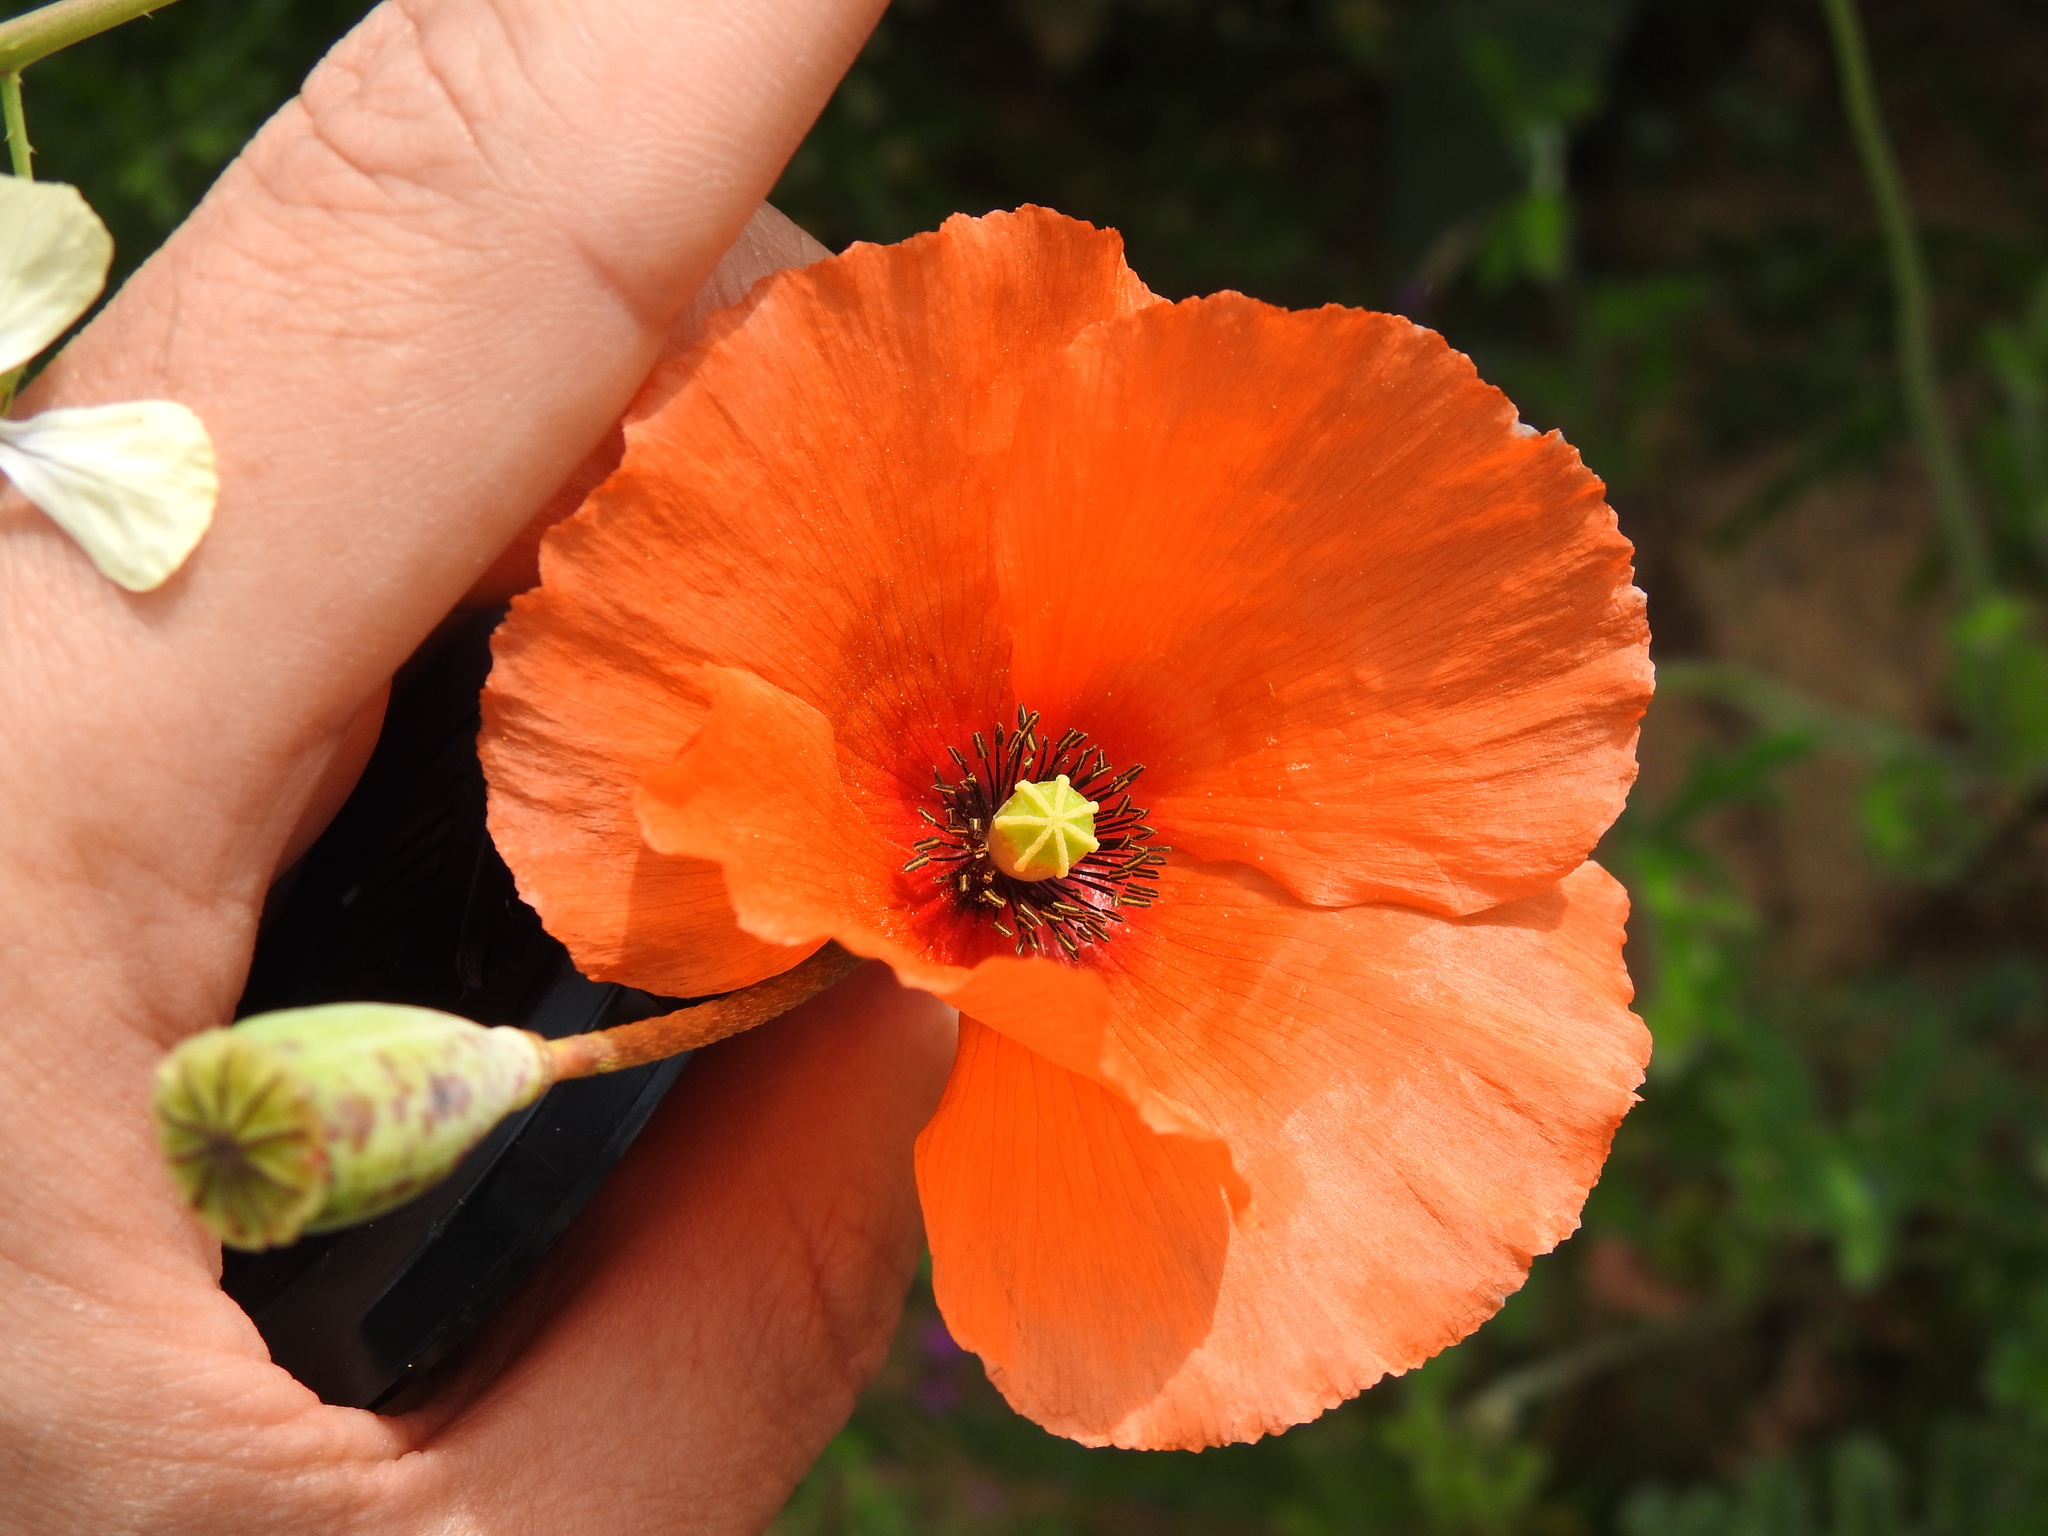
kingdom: Plantae
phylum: Tracheophyta
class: Magnoliopsida
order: Ranunculales
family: Papaveraceae
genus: Papaver
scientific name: Papaver rhoeas
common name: Corn poppy
